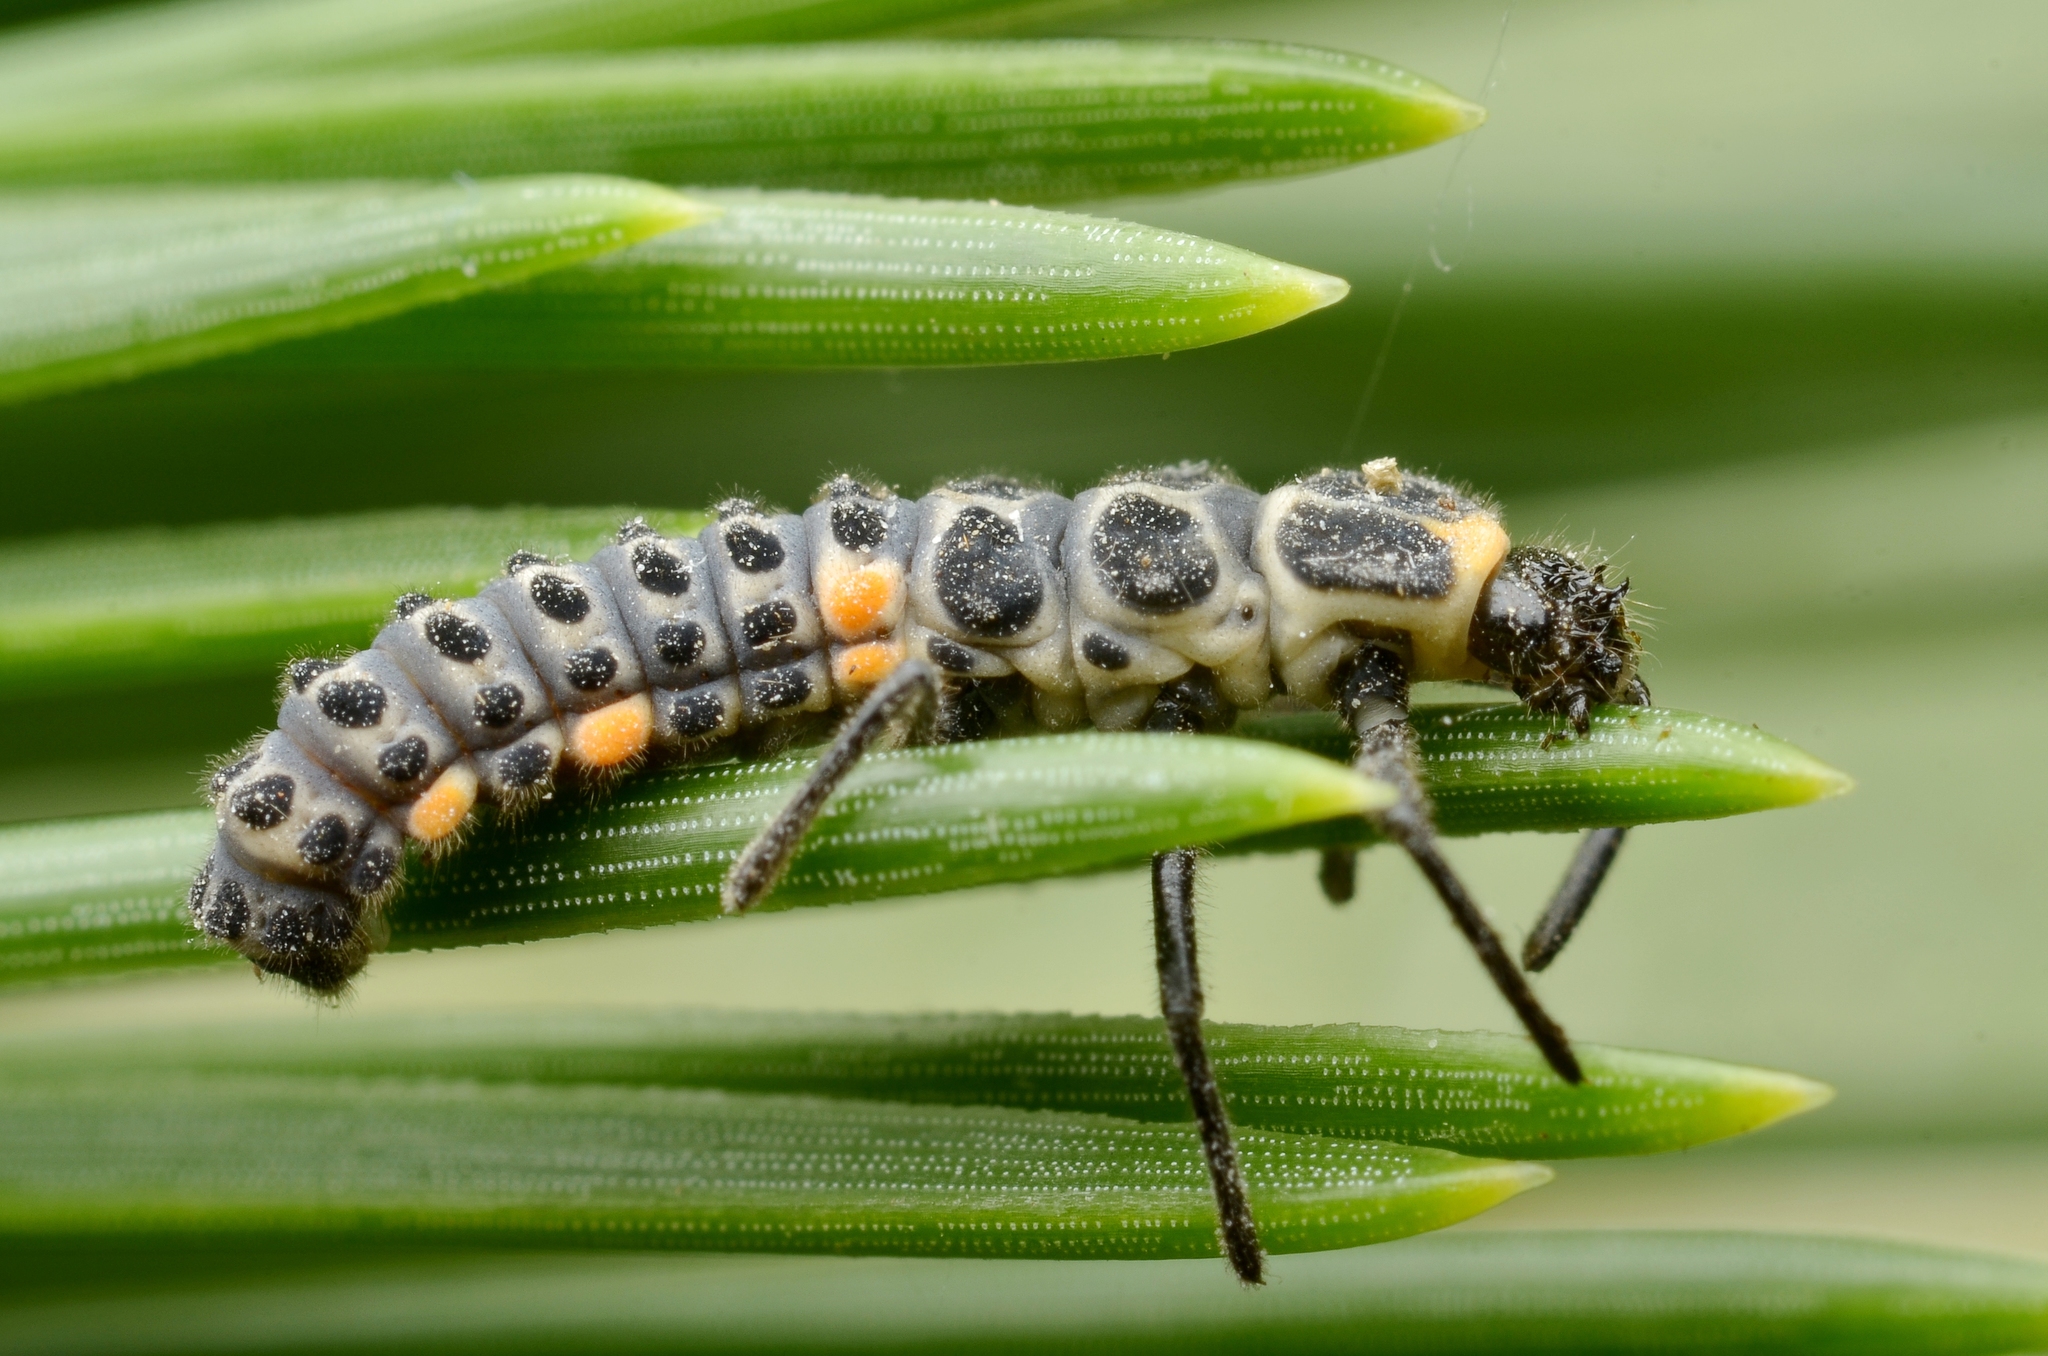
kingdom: Animalia
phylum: Arthropoda
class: Insecta
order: Coleoptera
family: Coccinellidae
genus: Myzia
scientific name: Myzia oblongoguttata
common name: Striped ladybird
